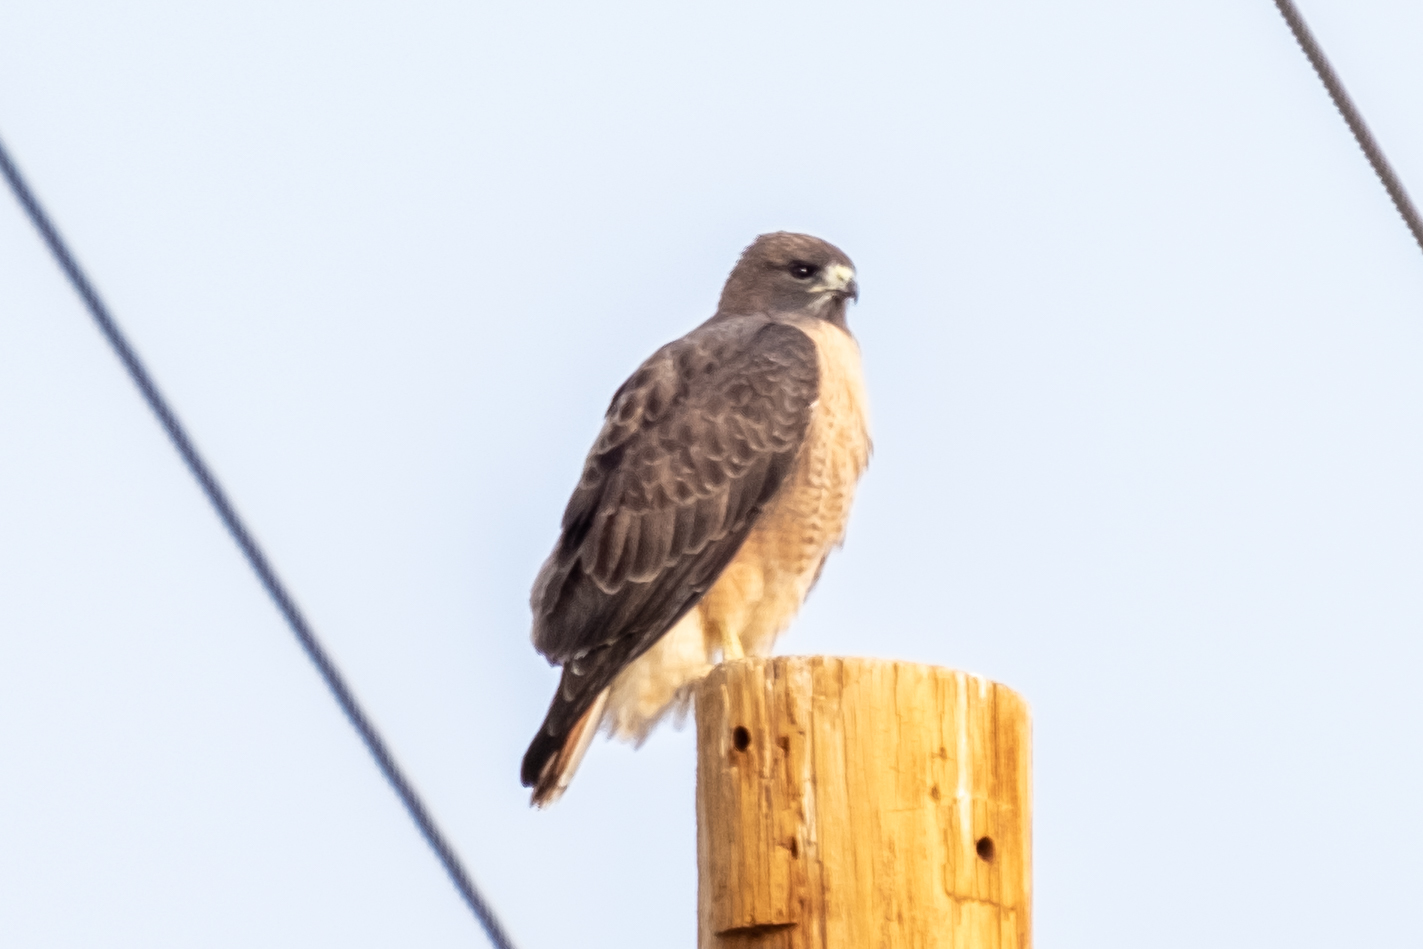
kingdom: Animalia
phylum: Chordata
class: Aves
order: Accipitriformes
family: Accipitridae
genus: Buteo
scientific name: Buteo jamaicensis
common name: Red-tailed hawk
